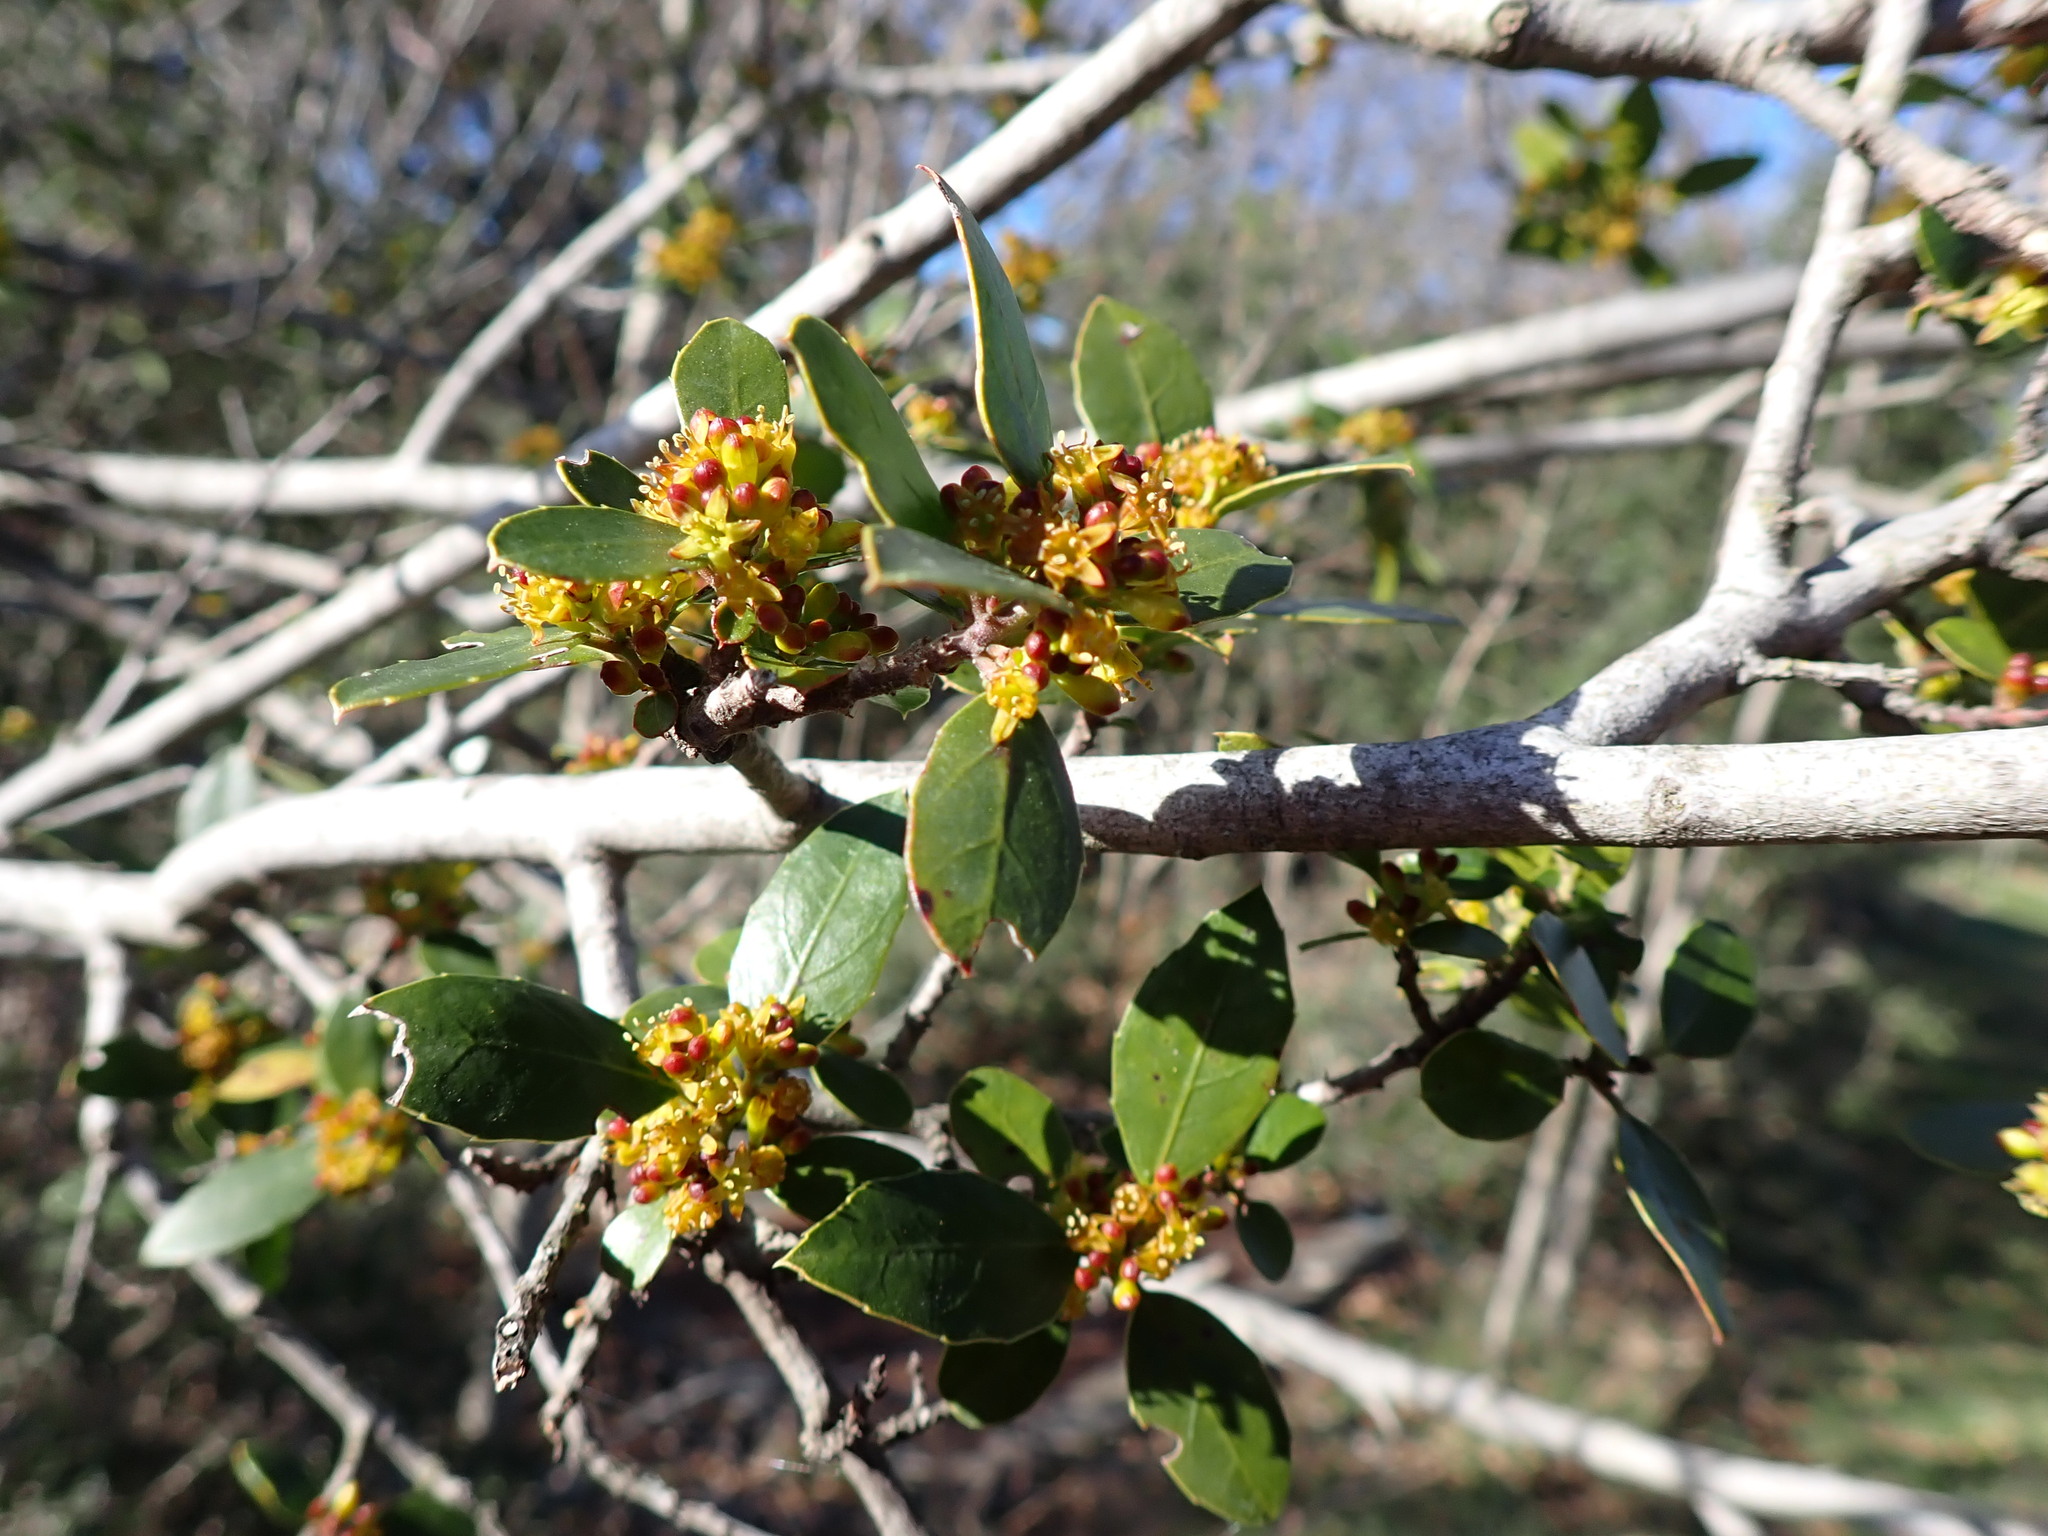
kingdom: Plantae
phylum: Tracheophyta
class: Magnoliopsida
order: Rosales
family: Rhamnaceae
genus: Rhamnus
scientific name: Rhamnus alaternus
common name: Mediterranean buckthorn
